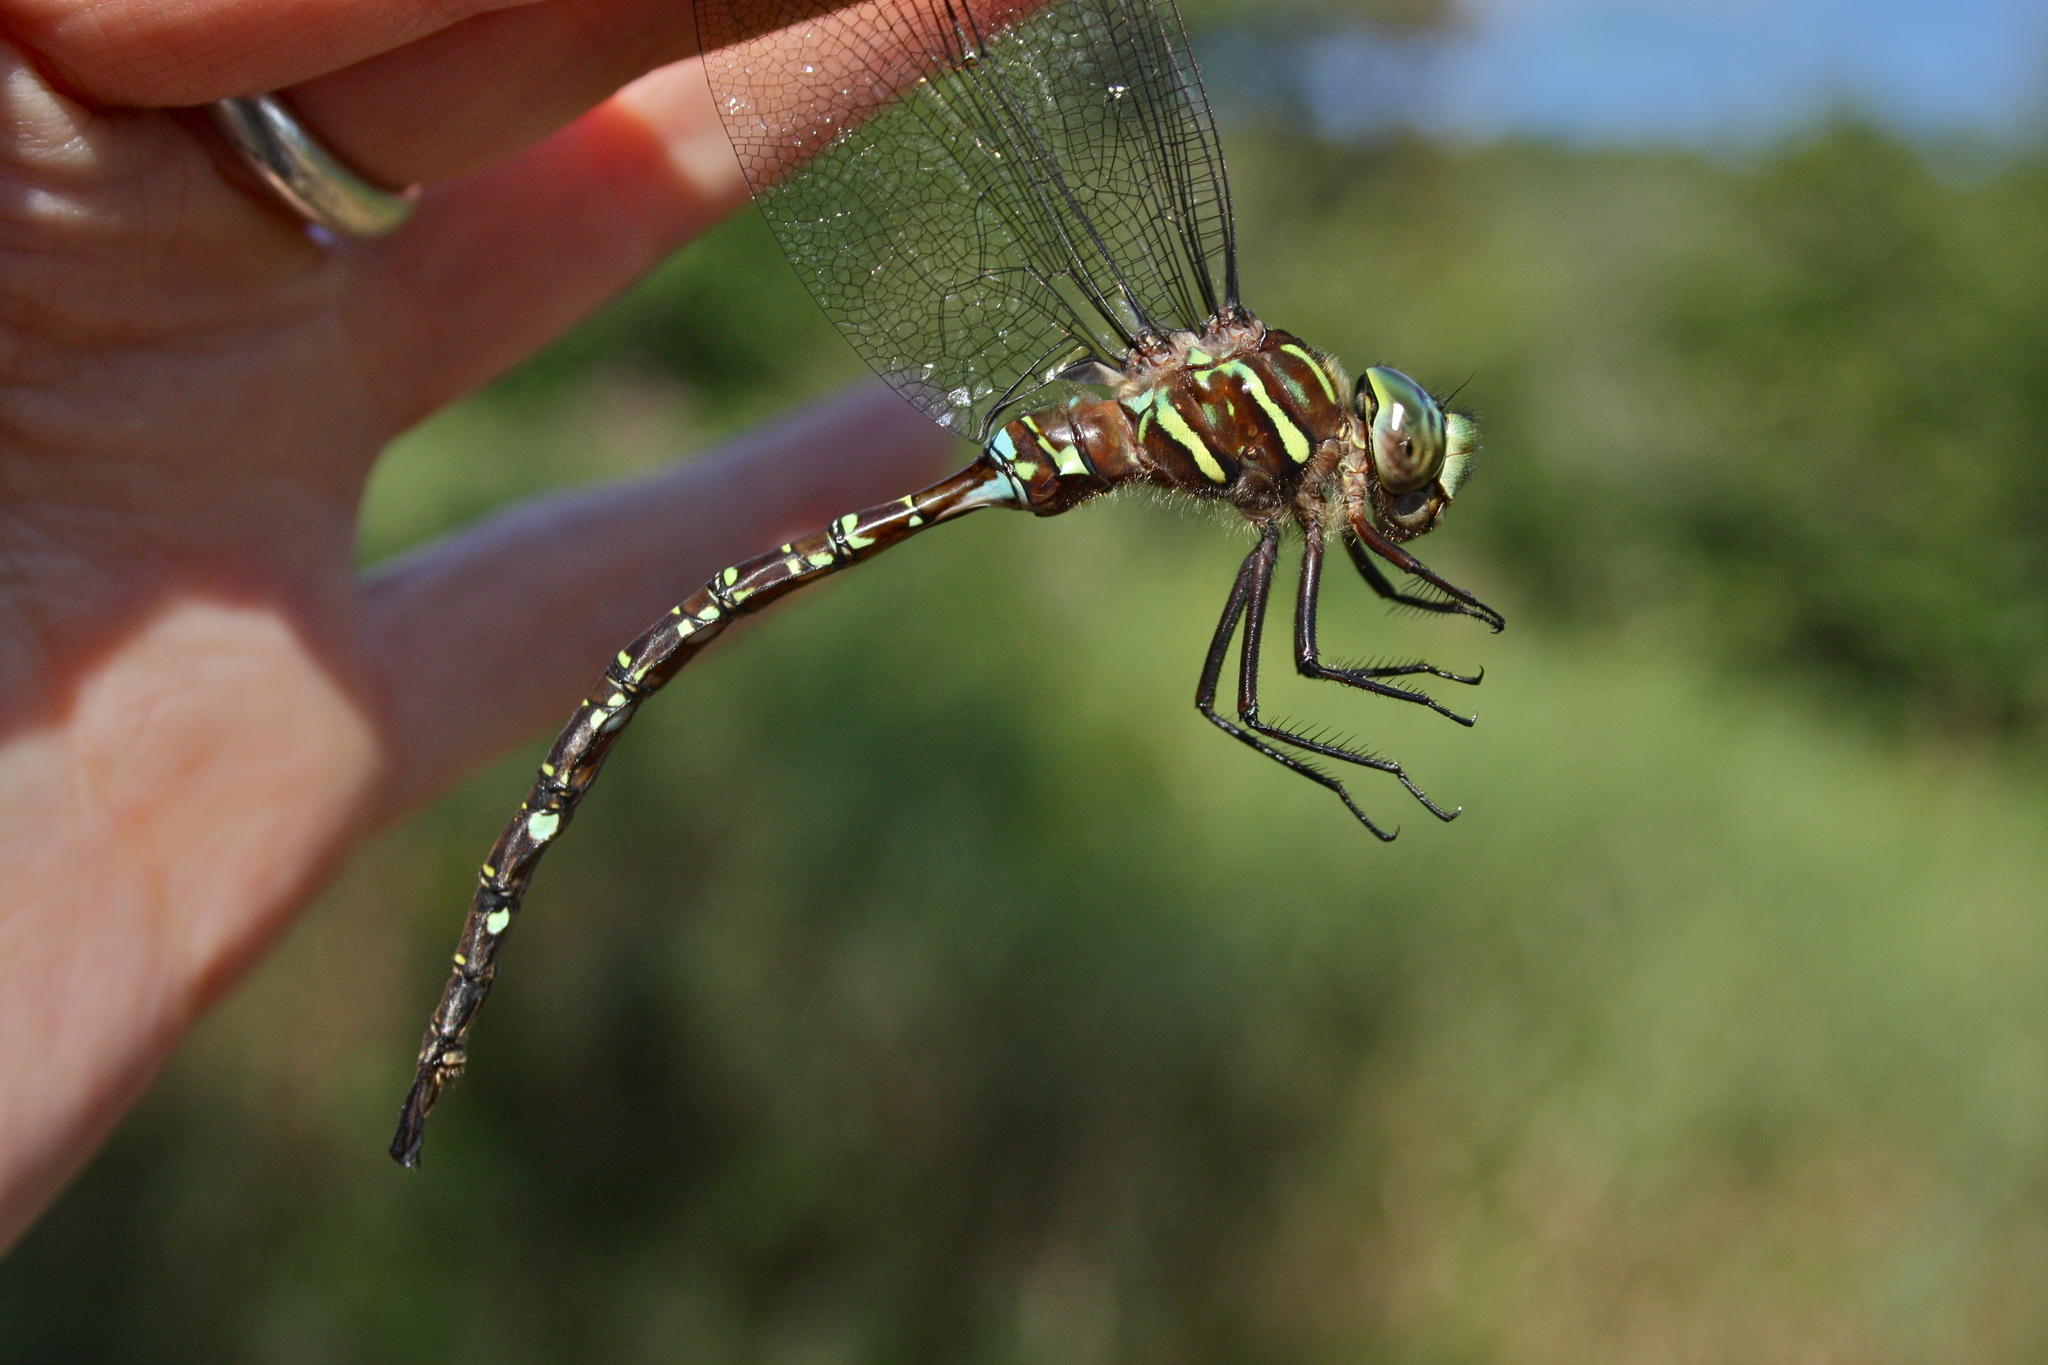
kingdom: Animalia
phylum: Arthropoda
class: Insecta
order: Odonata
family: Aeshnidae
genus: Aeshna
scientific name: Aeshna umbrosa
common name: Shadow darner
